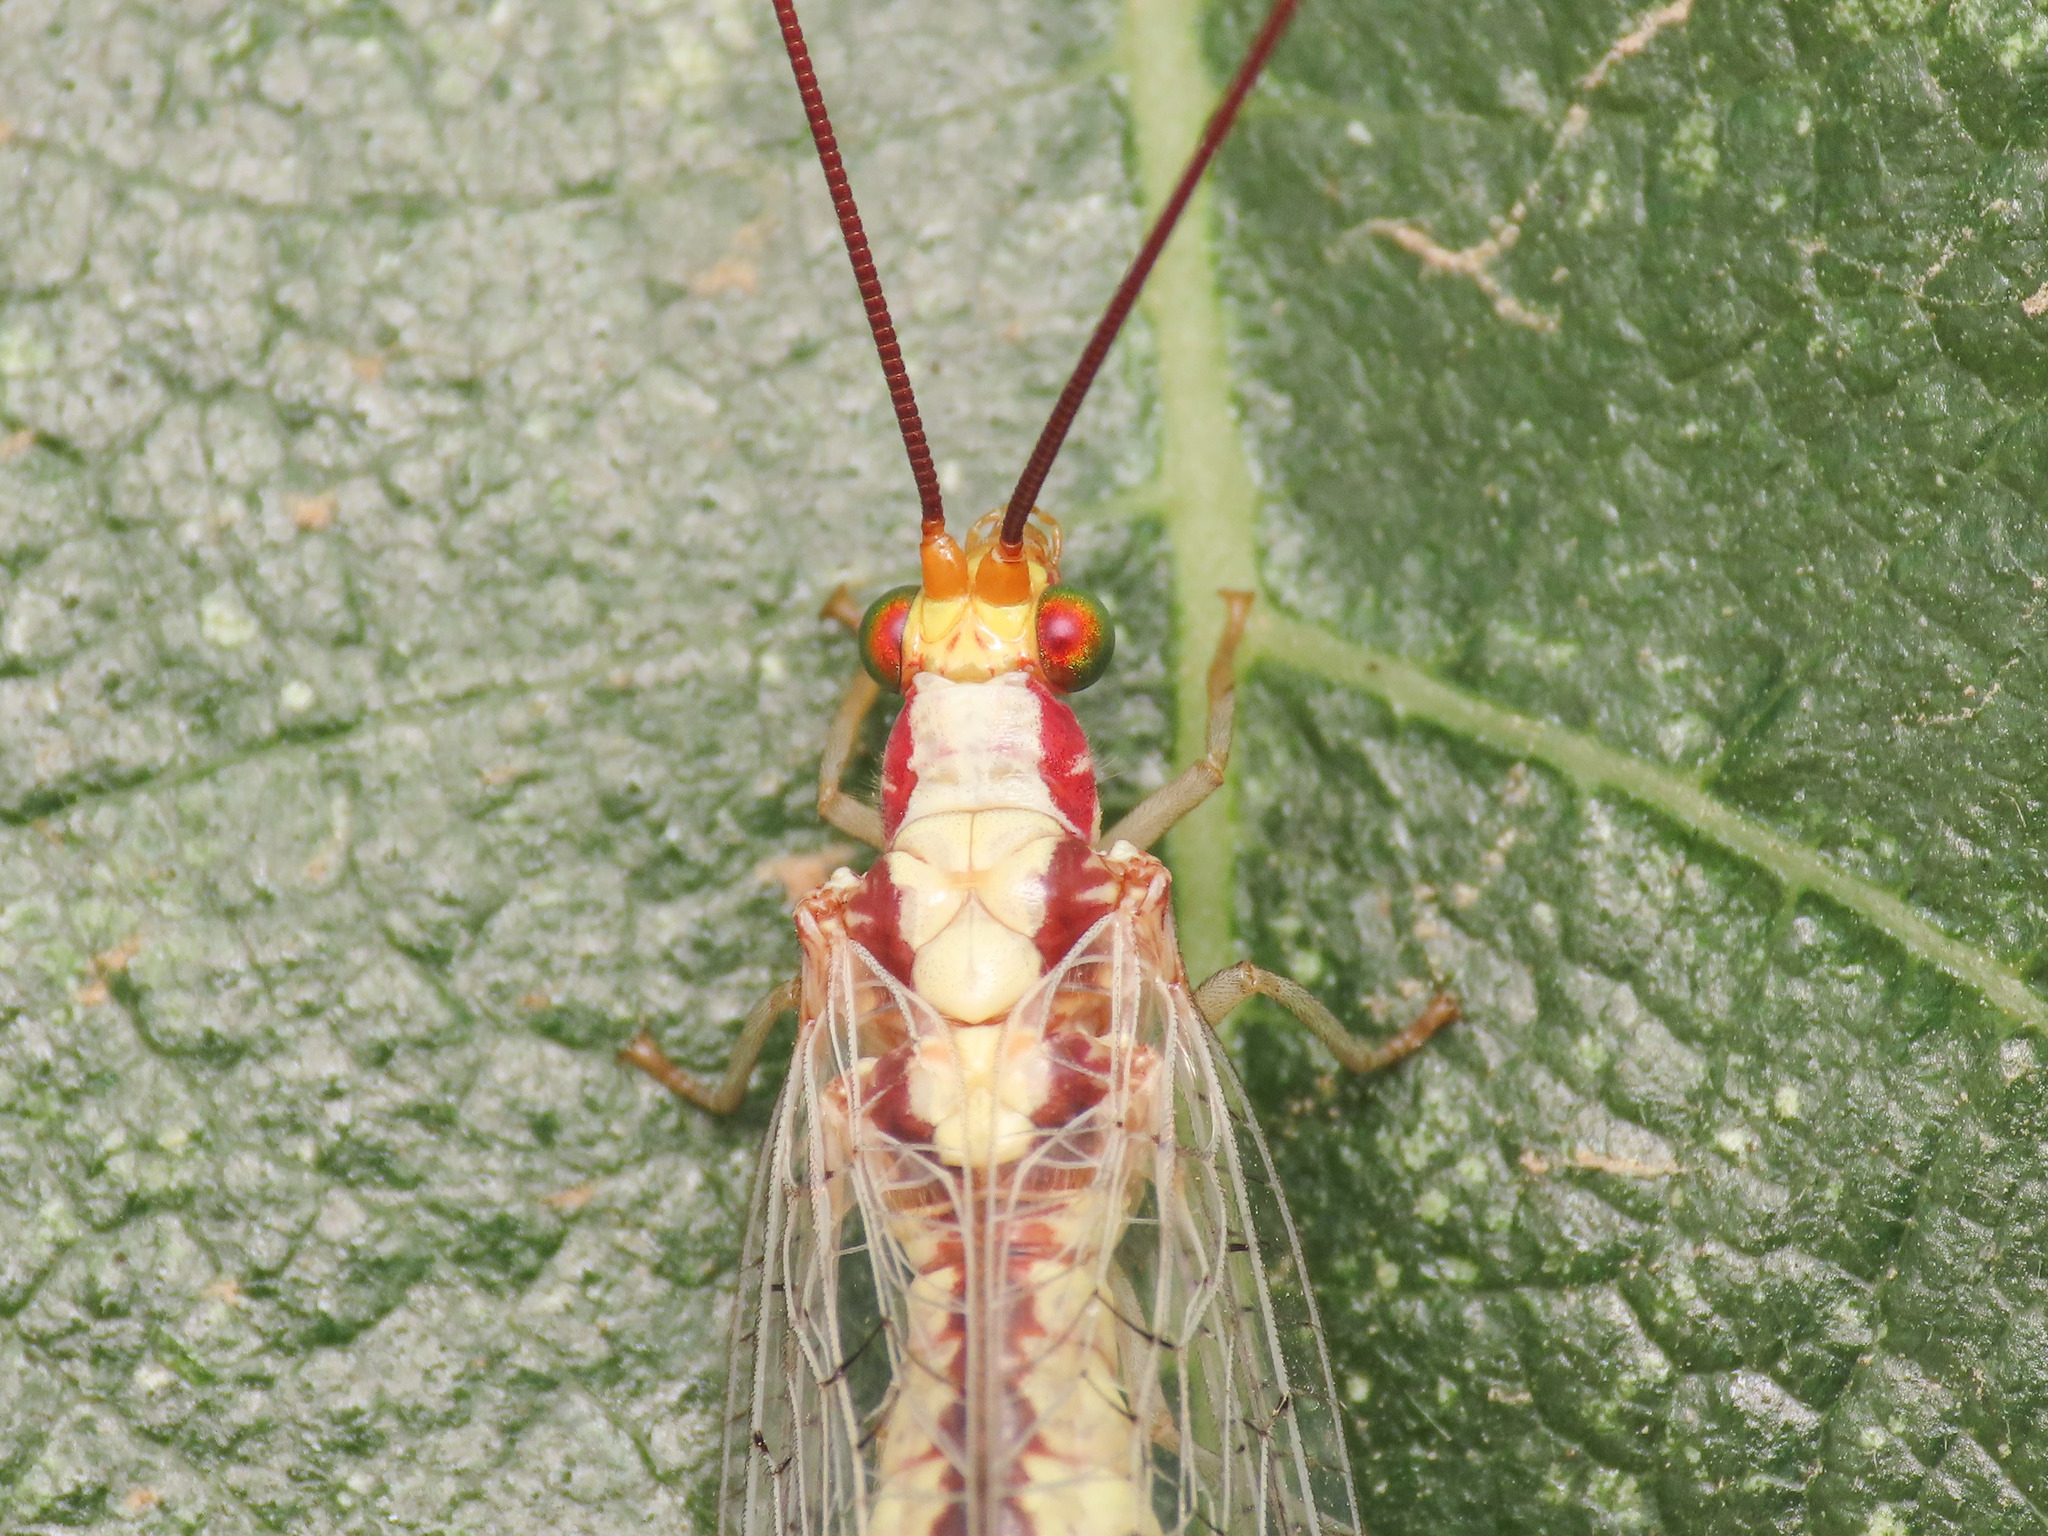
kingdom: Animalia
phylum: Arthropoda
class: Insecta
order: Neuroptera
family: Chrysopidae
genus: Italochrysa
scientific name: Italochrysa italica
